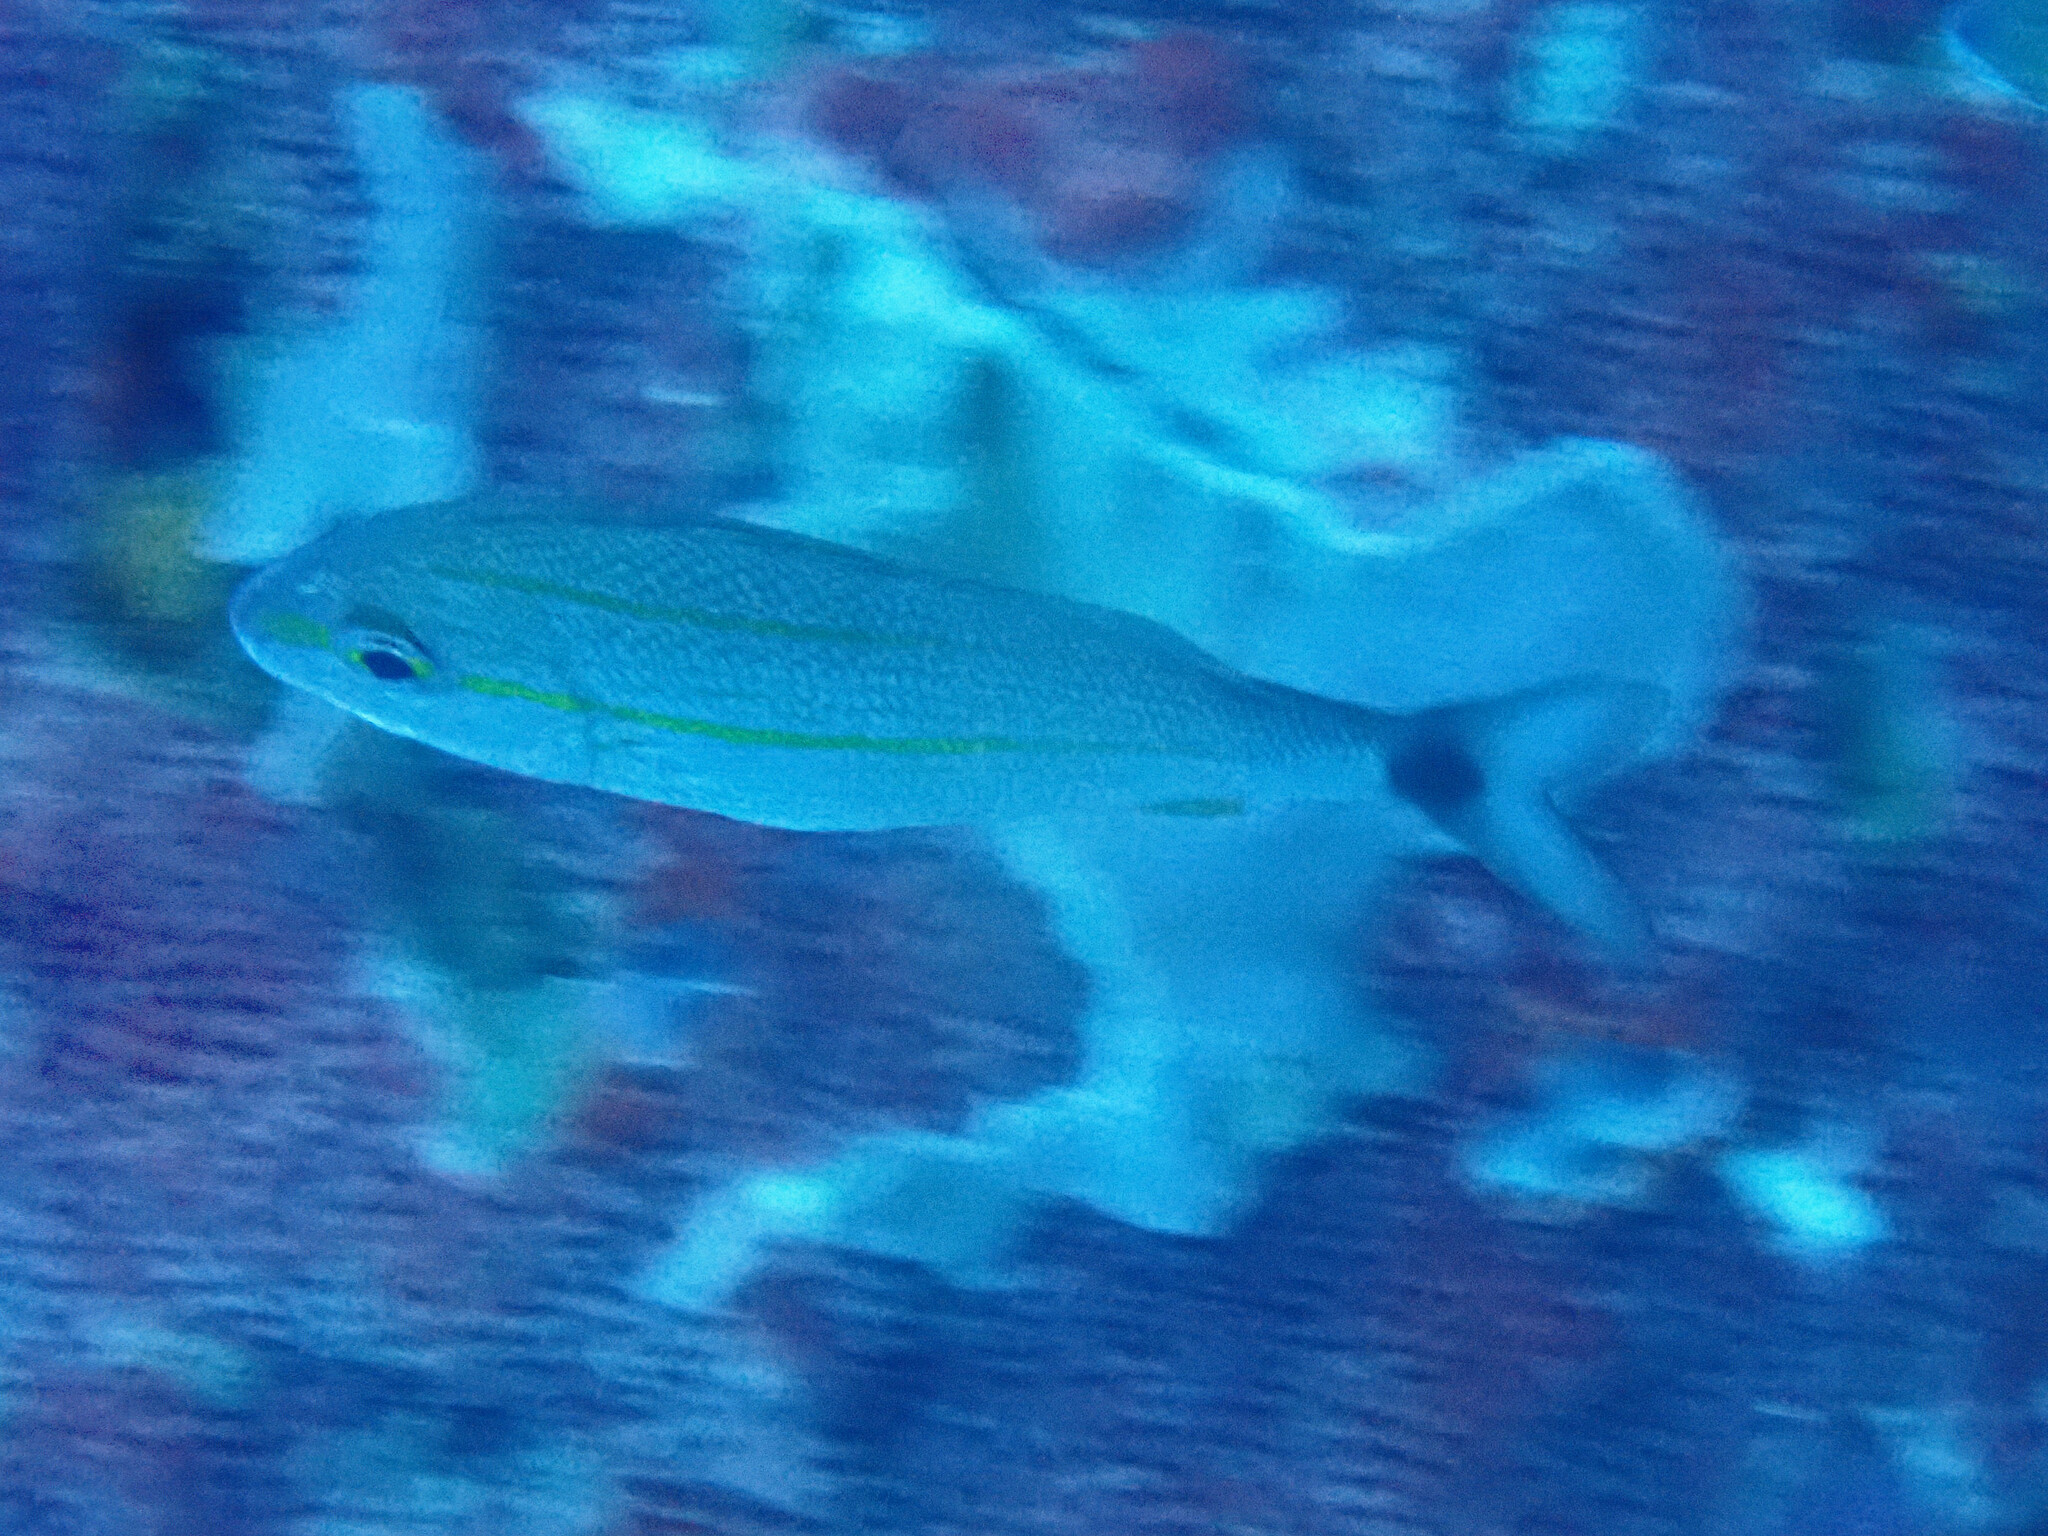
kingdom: Animalia
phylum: Chordata
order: Perciformes
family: Haemulidae
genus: Haemulon
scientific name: Haemulon aurolineatum
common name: Tomtate
